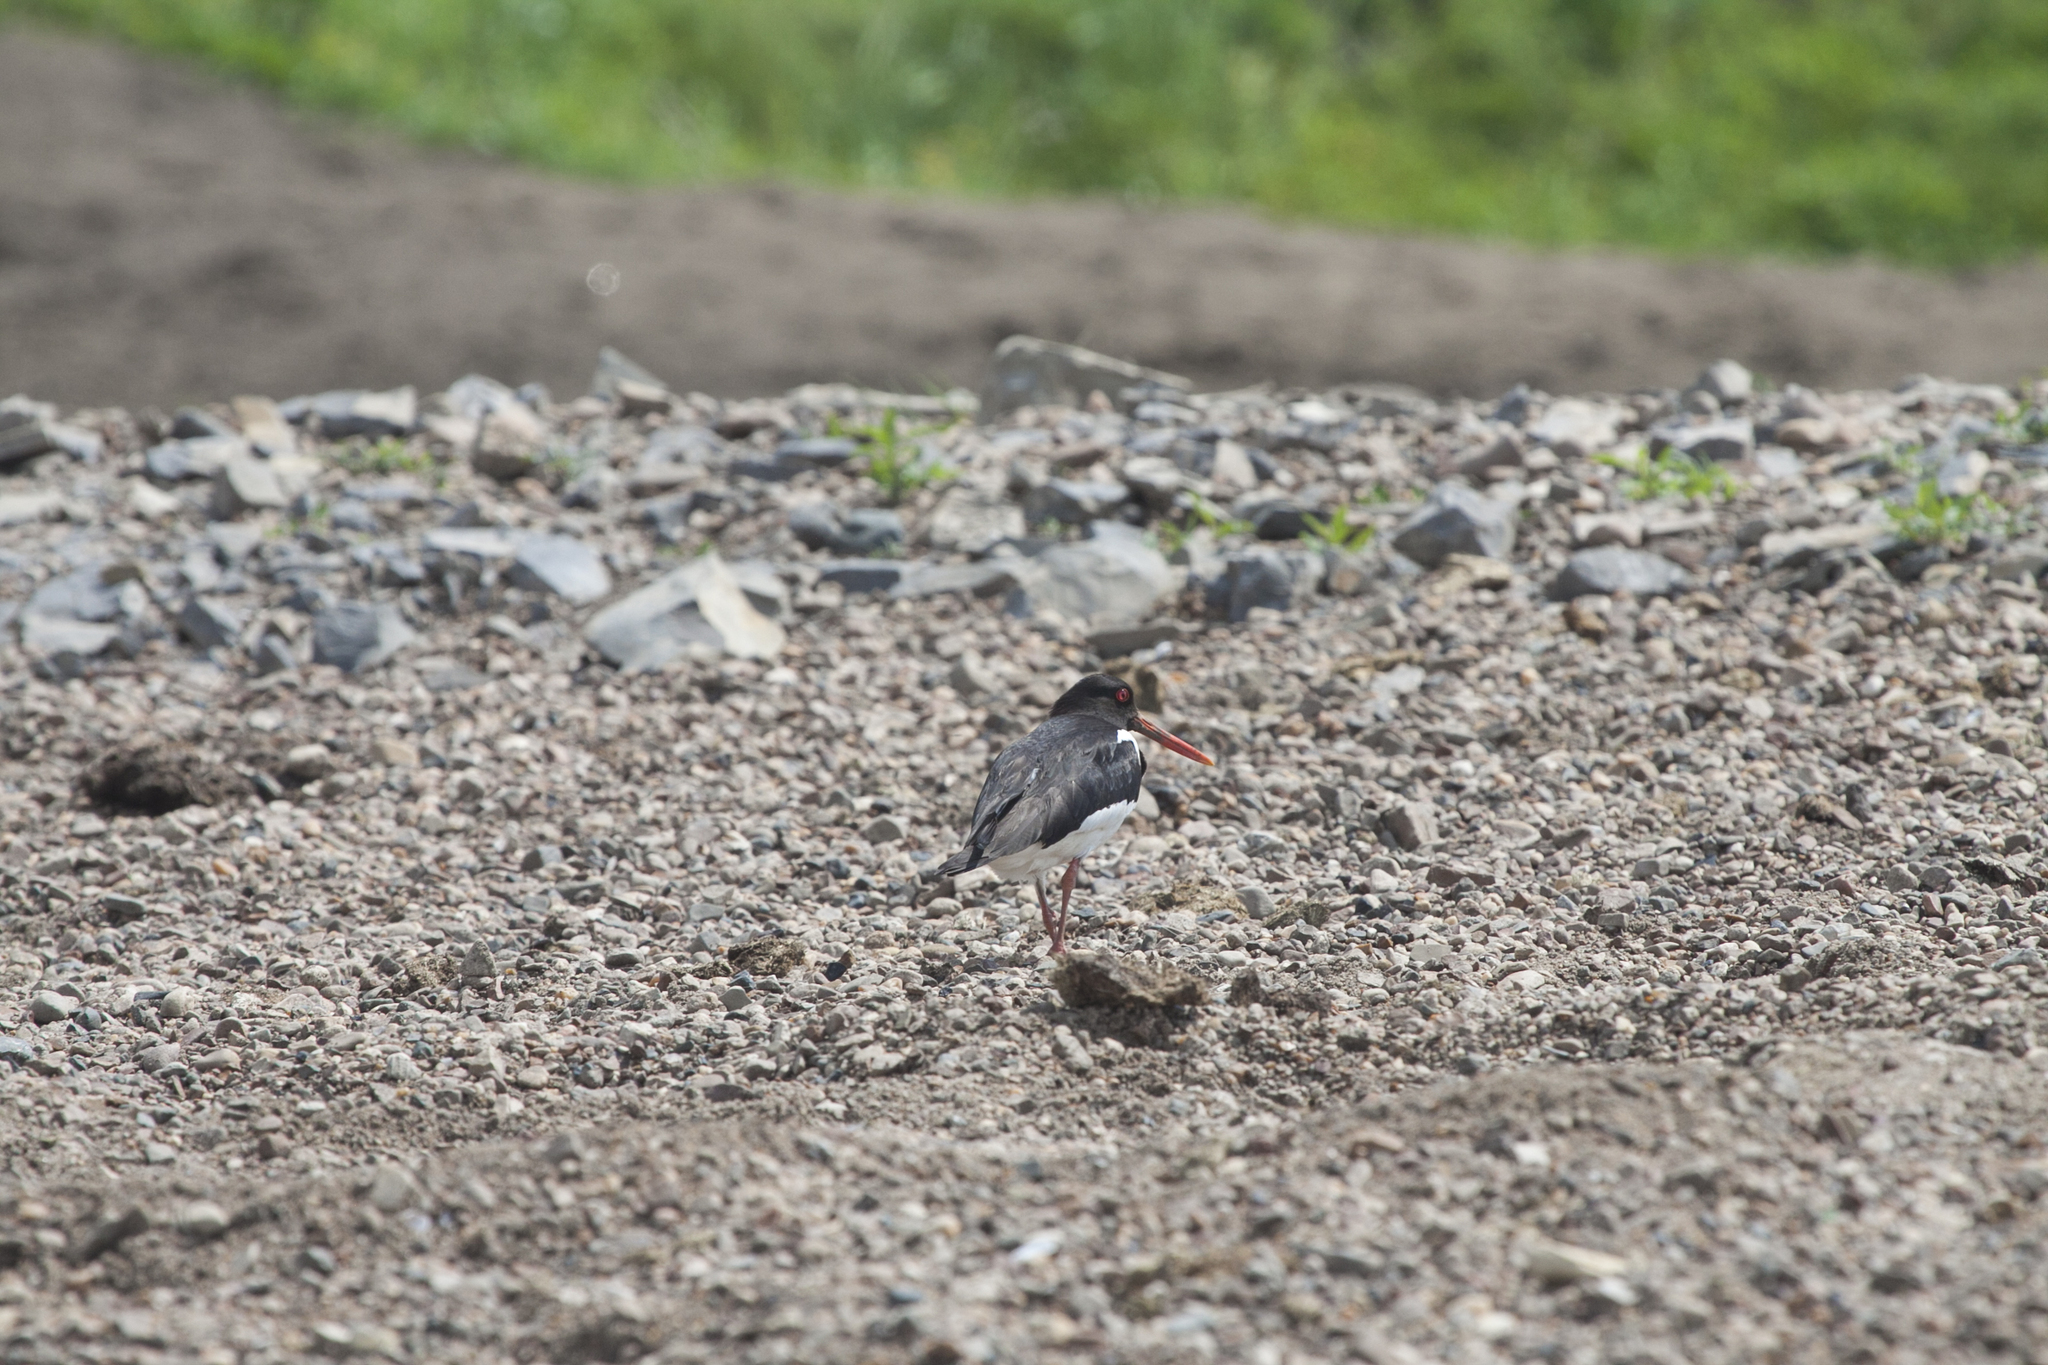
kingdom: Animalia
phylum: Chordata
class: Aves
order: Charadriiformes
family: Haematopodidae
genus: Haematopus
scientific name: Haematopus ostralegus
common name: Eurasian oystercatcher
